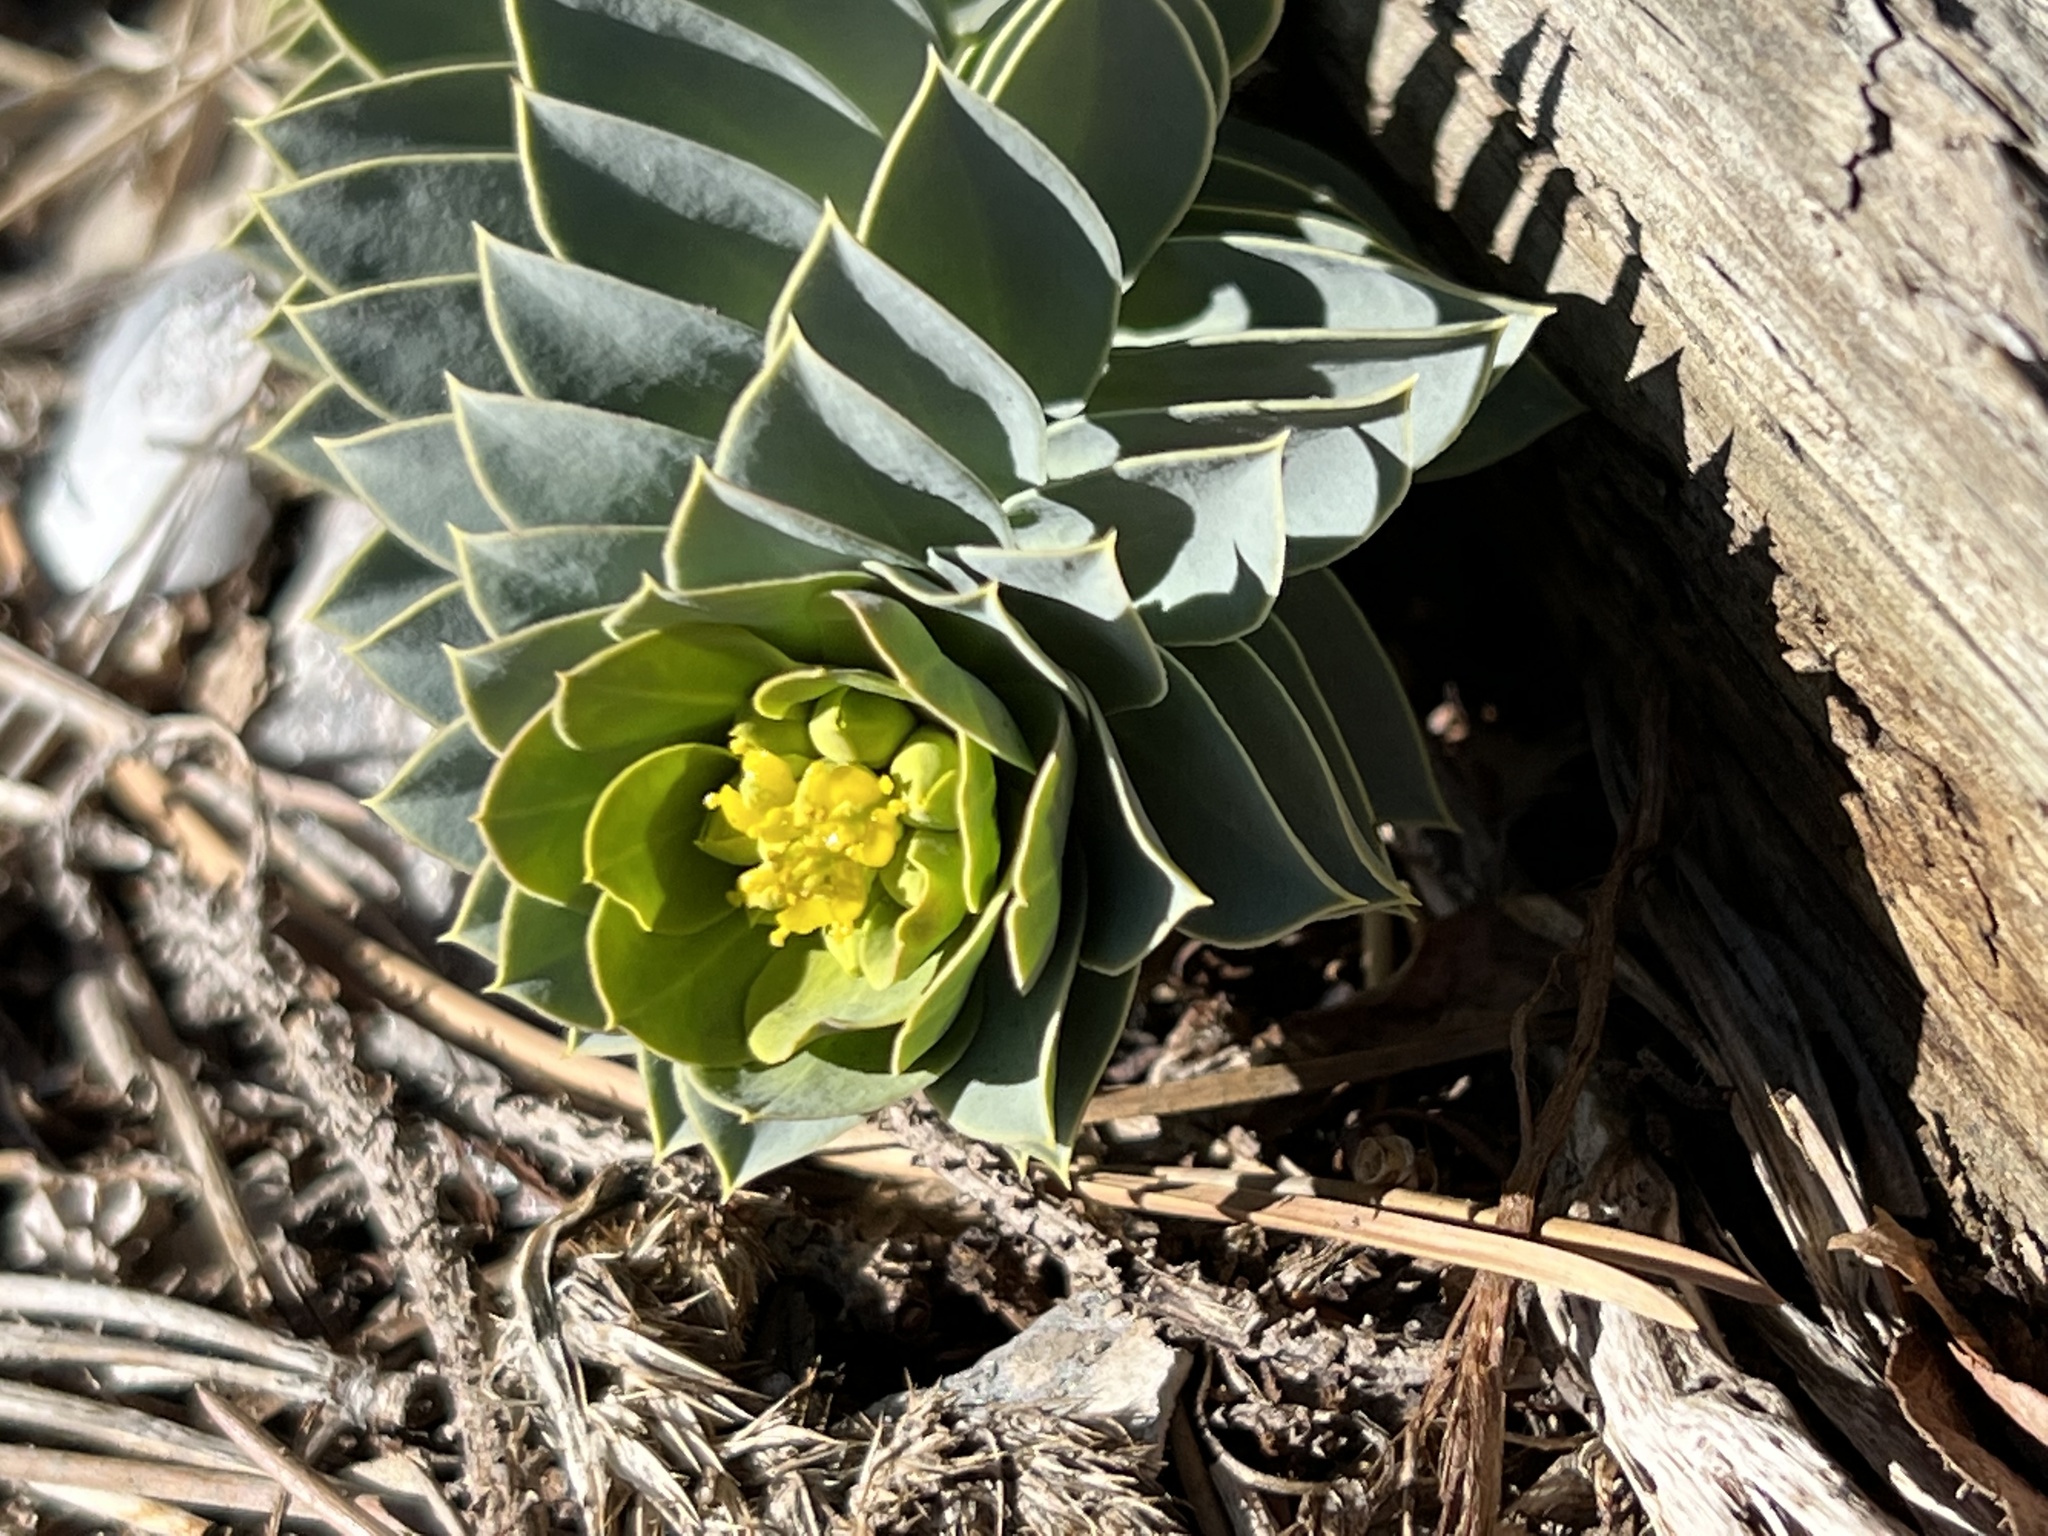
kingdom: Plantae
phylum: Tracheophyta
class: Magnoliopsida
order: Malpighiales
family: Euphorbiaceae
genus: Euphorbia
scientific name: Euphorbia myrsinites
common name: Myrtle spurge
